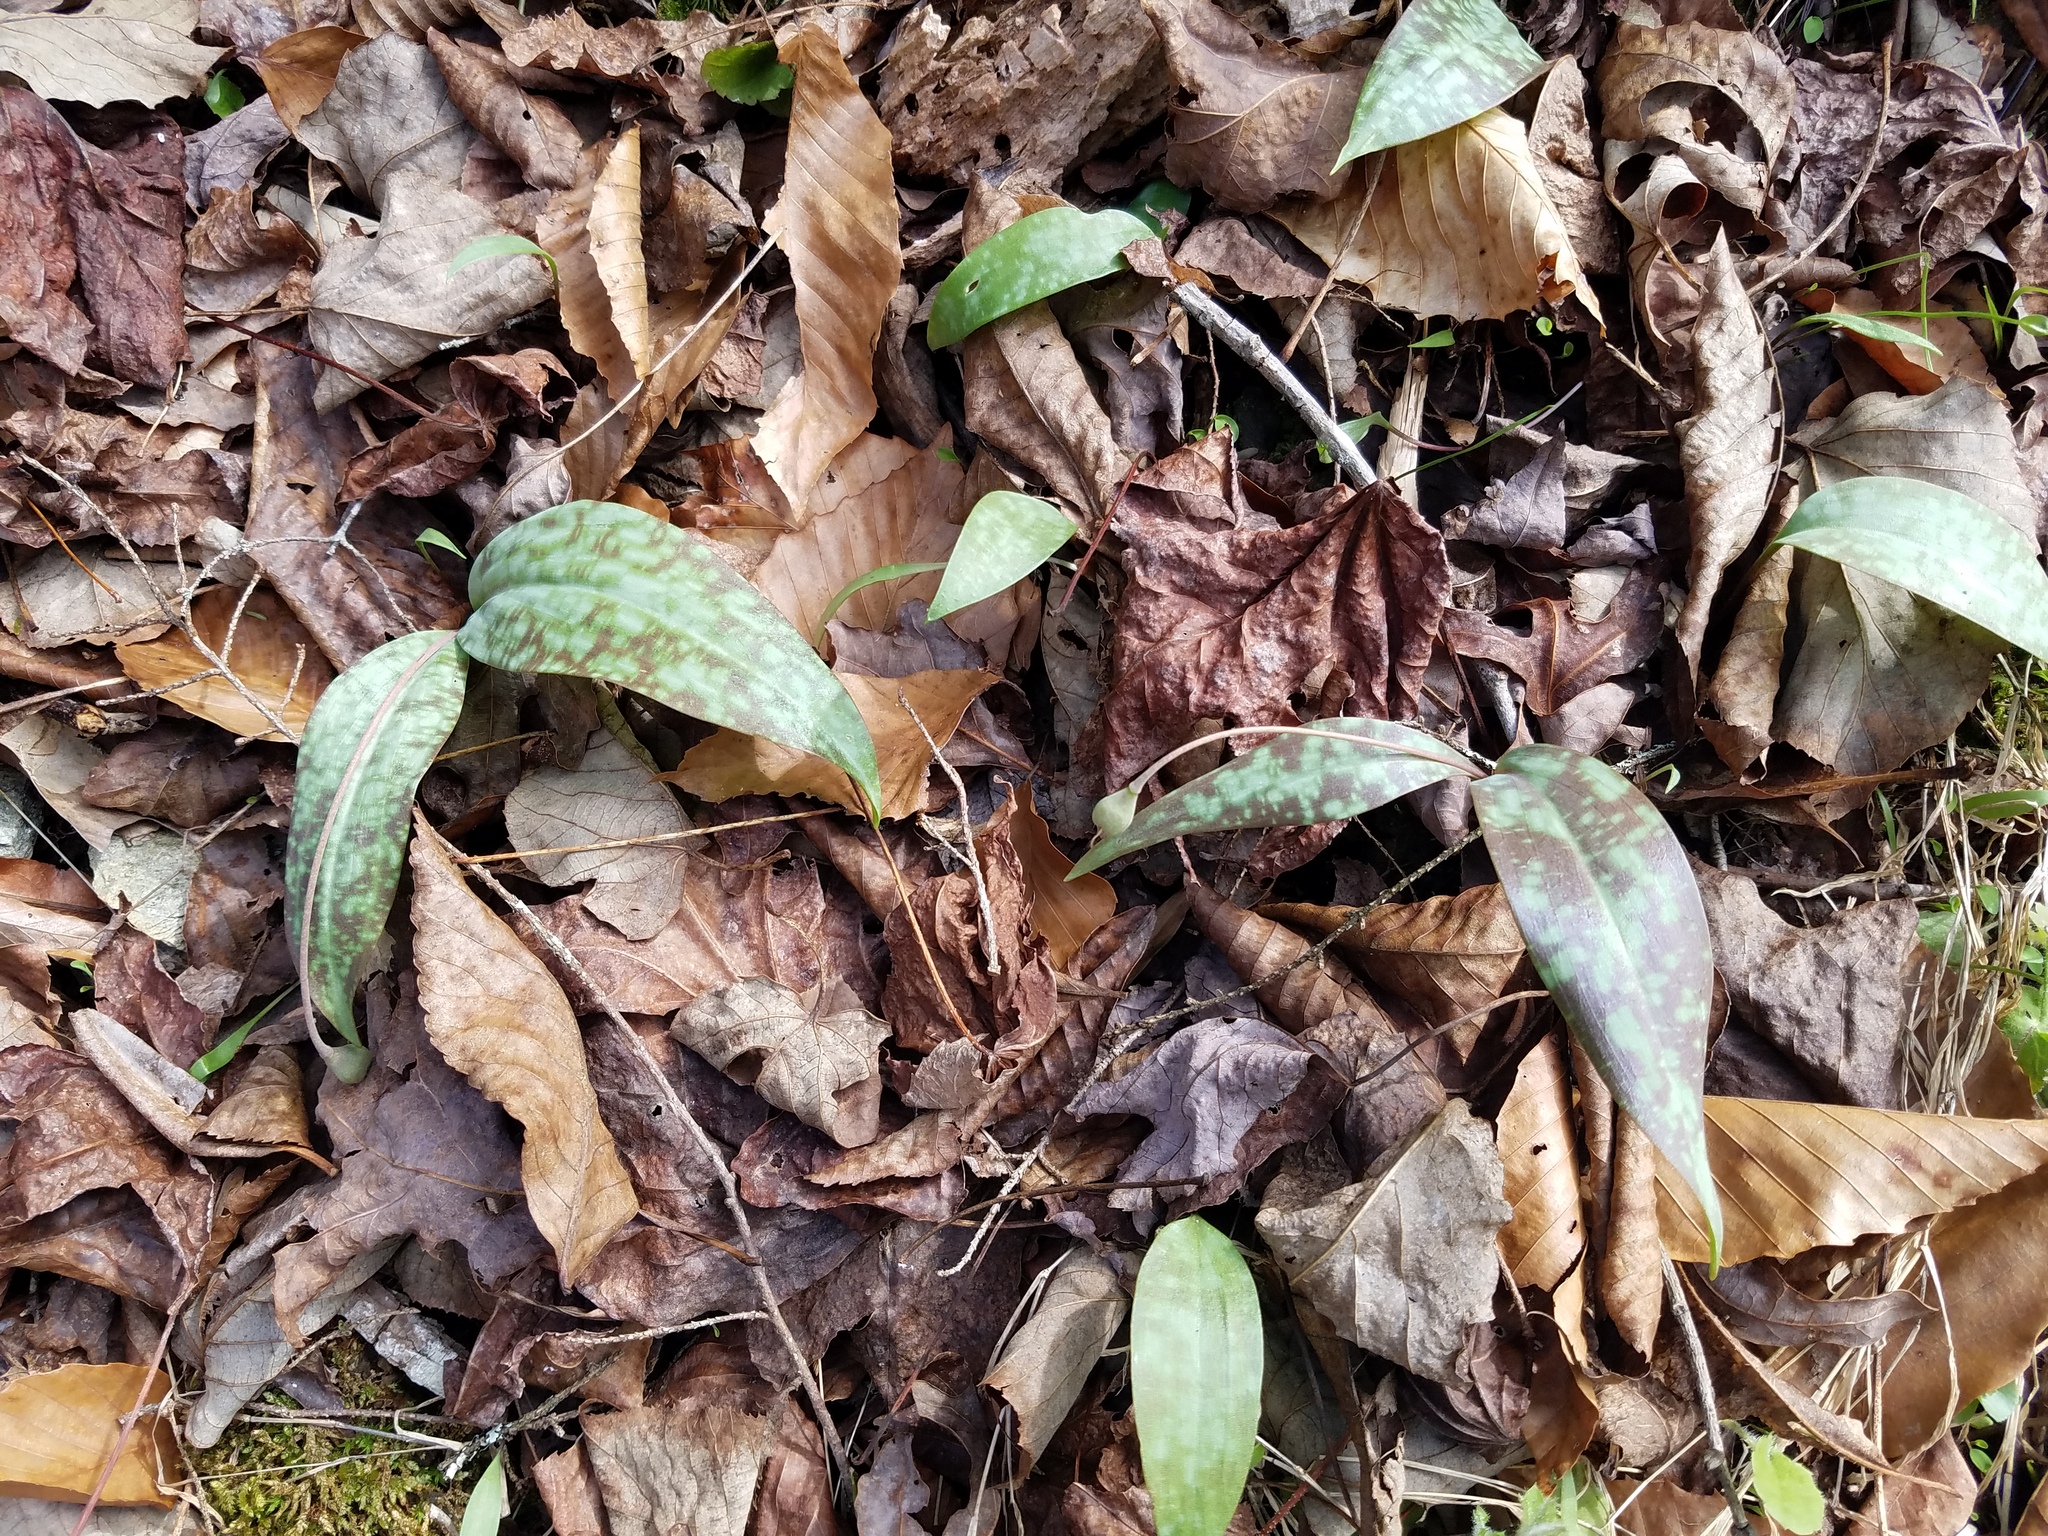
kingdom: Plantae
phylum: Tracheophyta
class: Liliopsida
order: Liliales
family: Liliaceae
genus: Erythronium
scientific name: Erythronium umbilicatum
